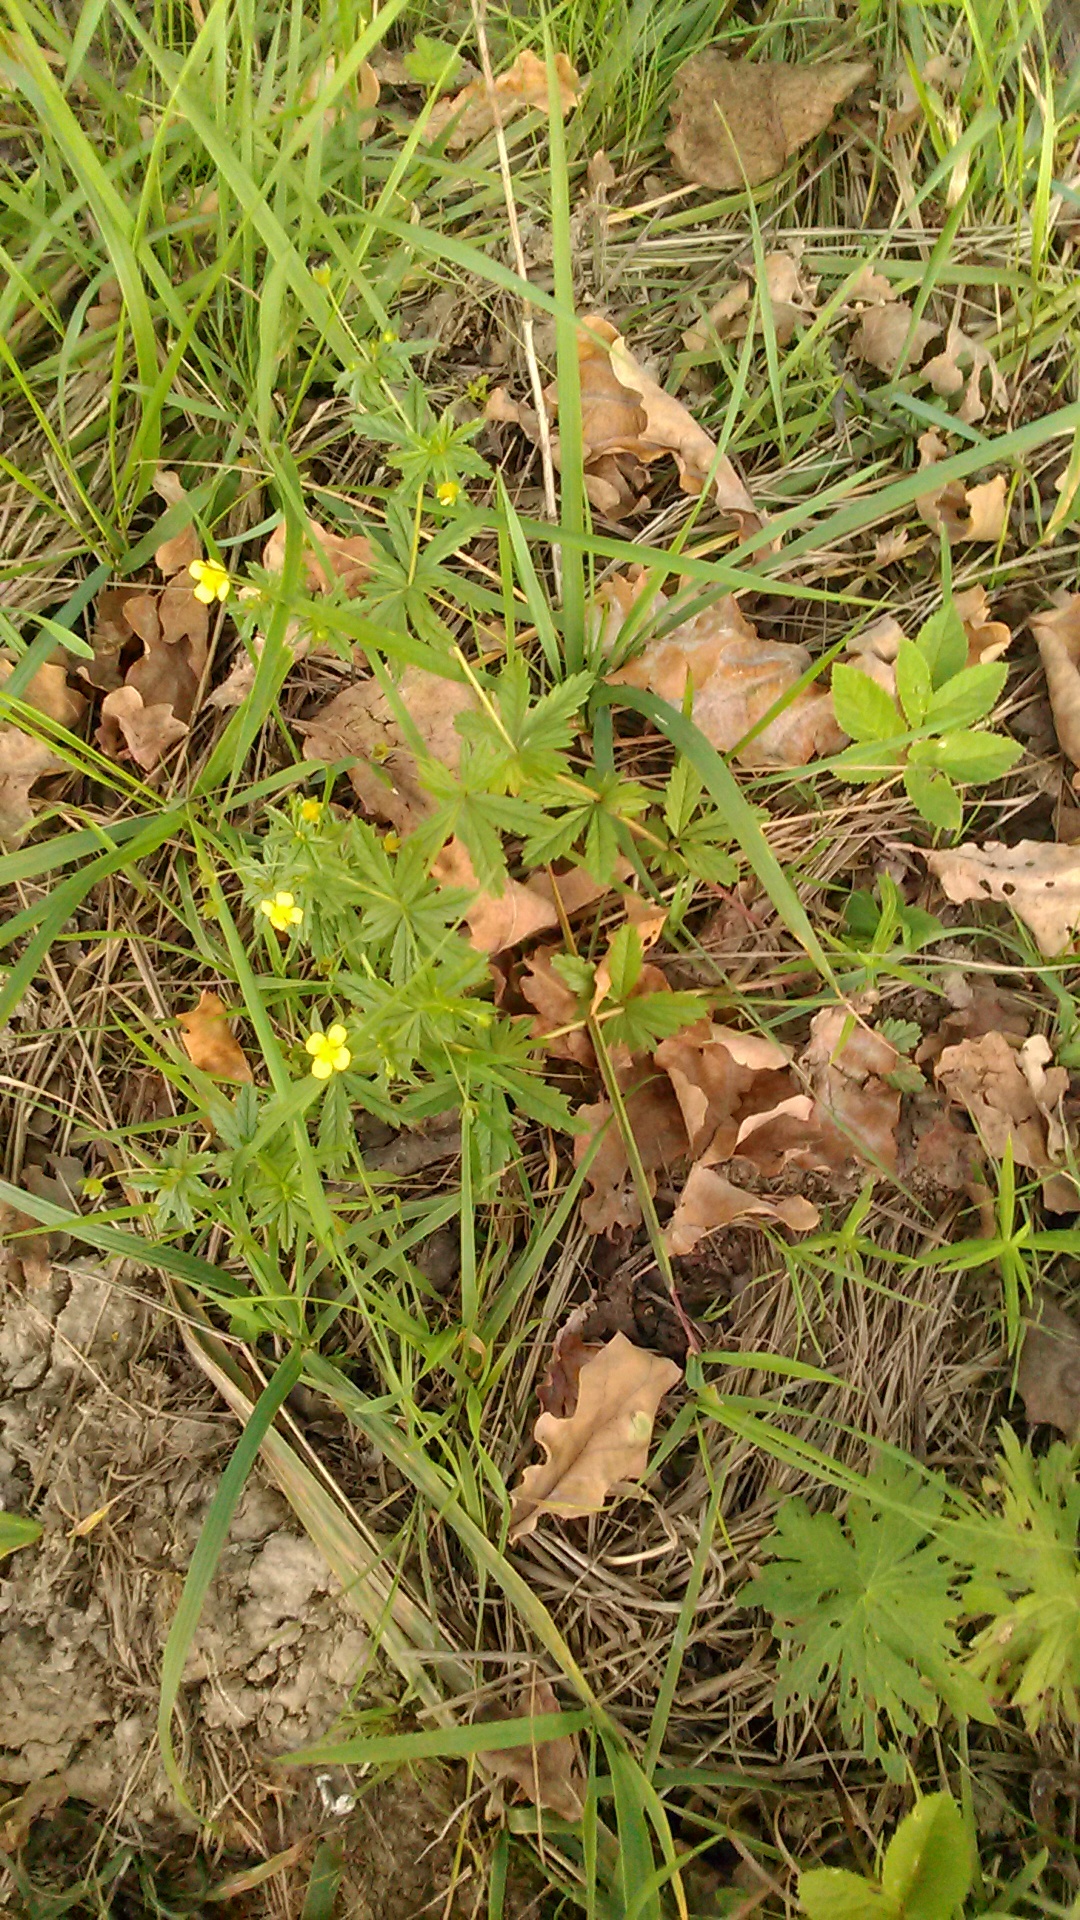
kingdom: Plantae
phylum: Tracheophyta
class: Magnoliopsida
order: Rosales
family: Rosaceae
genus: Potentilla
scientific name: Potentilla erecta
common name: Tormentil
